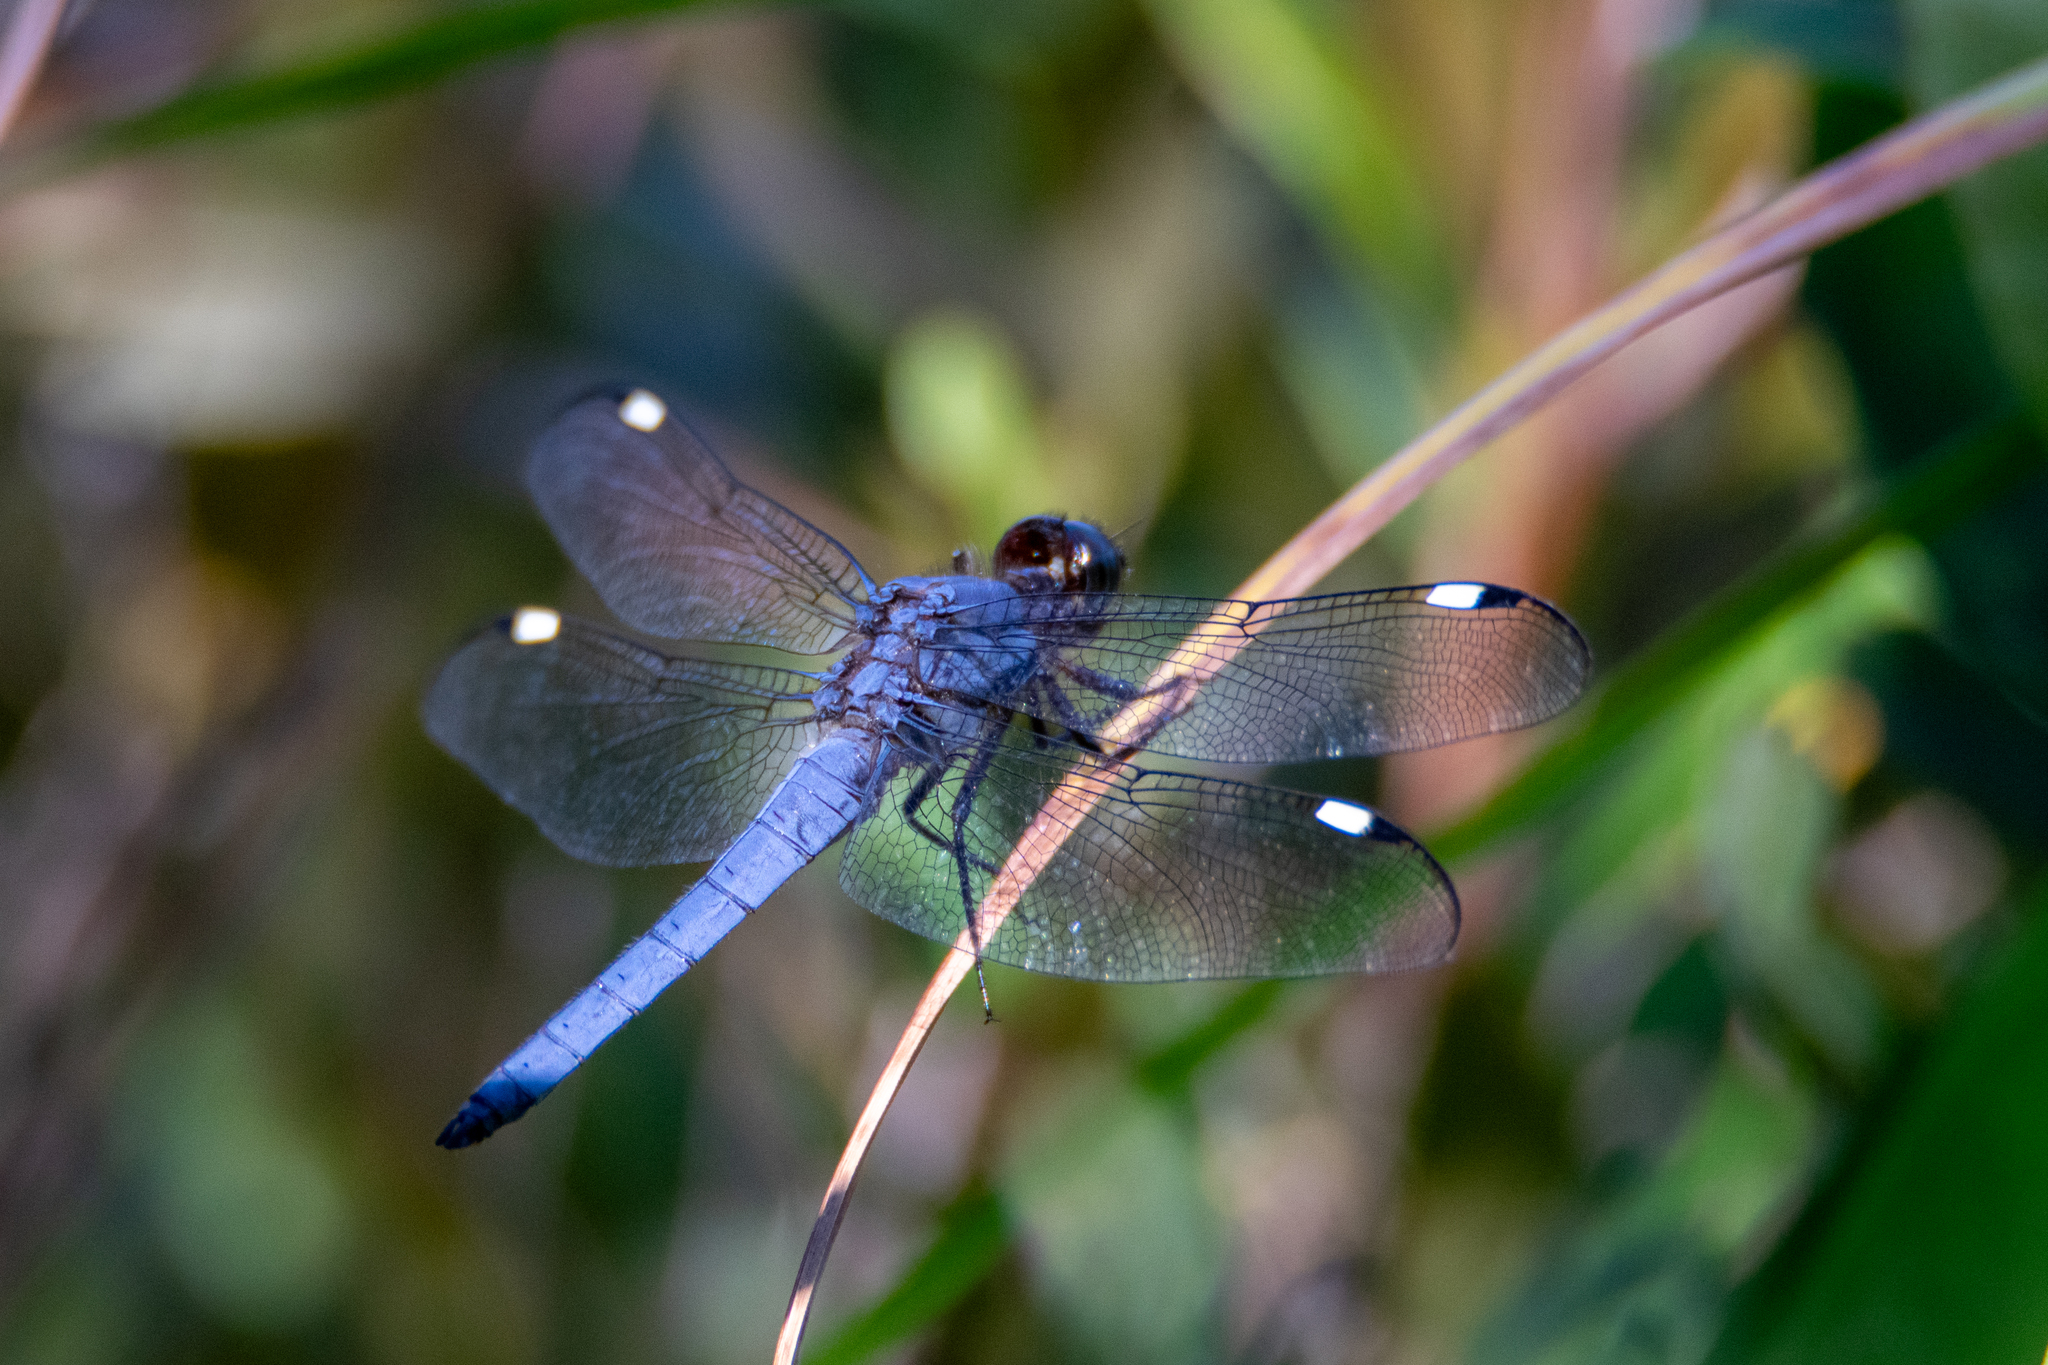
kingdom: Animalia
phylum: Arthropoda
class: Insecta
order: Odonata
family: Libellulidae
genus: Libellula
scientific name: Libellula cyanea
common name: Spangled skimmer
